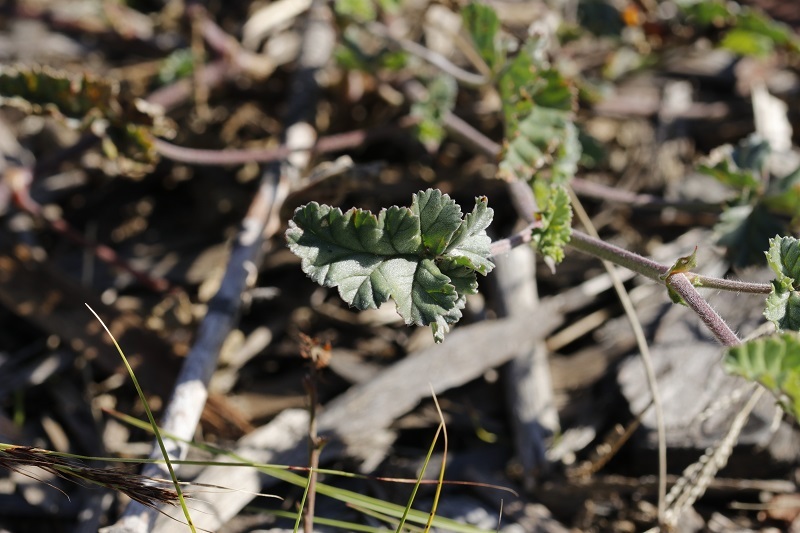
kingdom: Plantae
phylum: Tracheophyta
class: Magnoliopsida
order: Geraniales
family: Geraniaceae
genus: Pelargonium
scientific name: Pelargonium candicans
